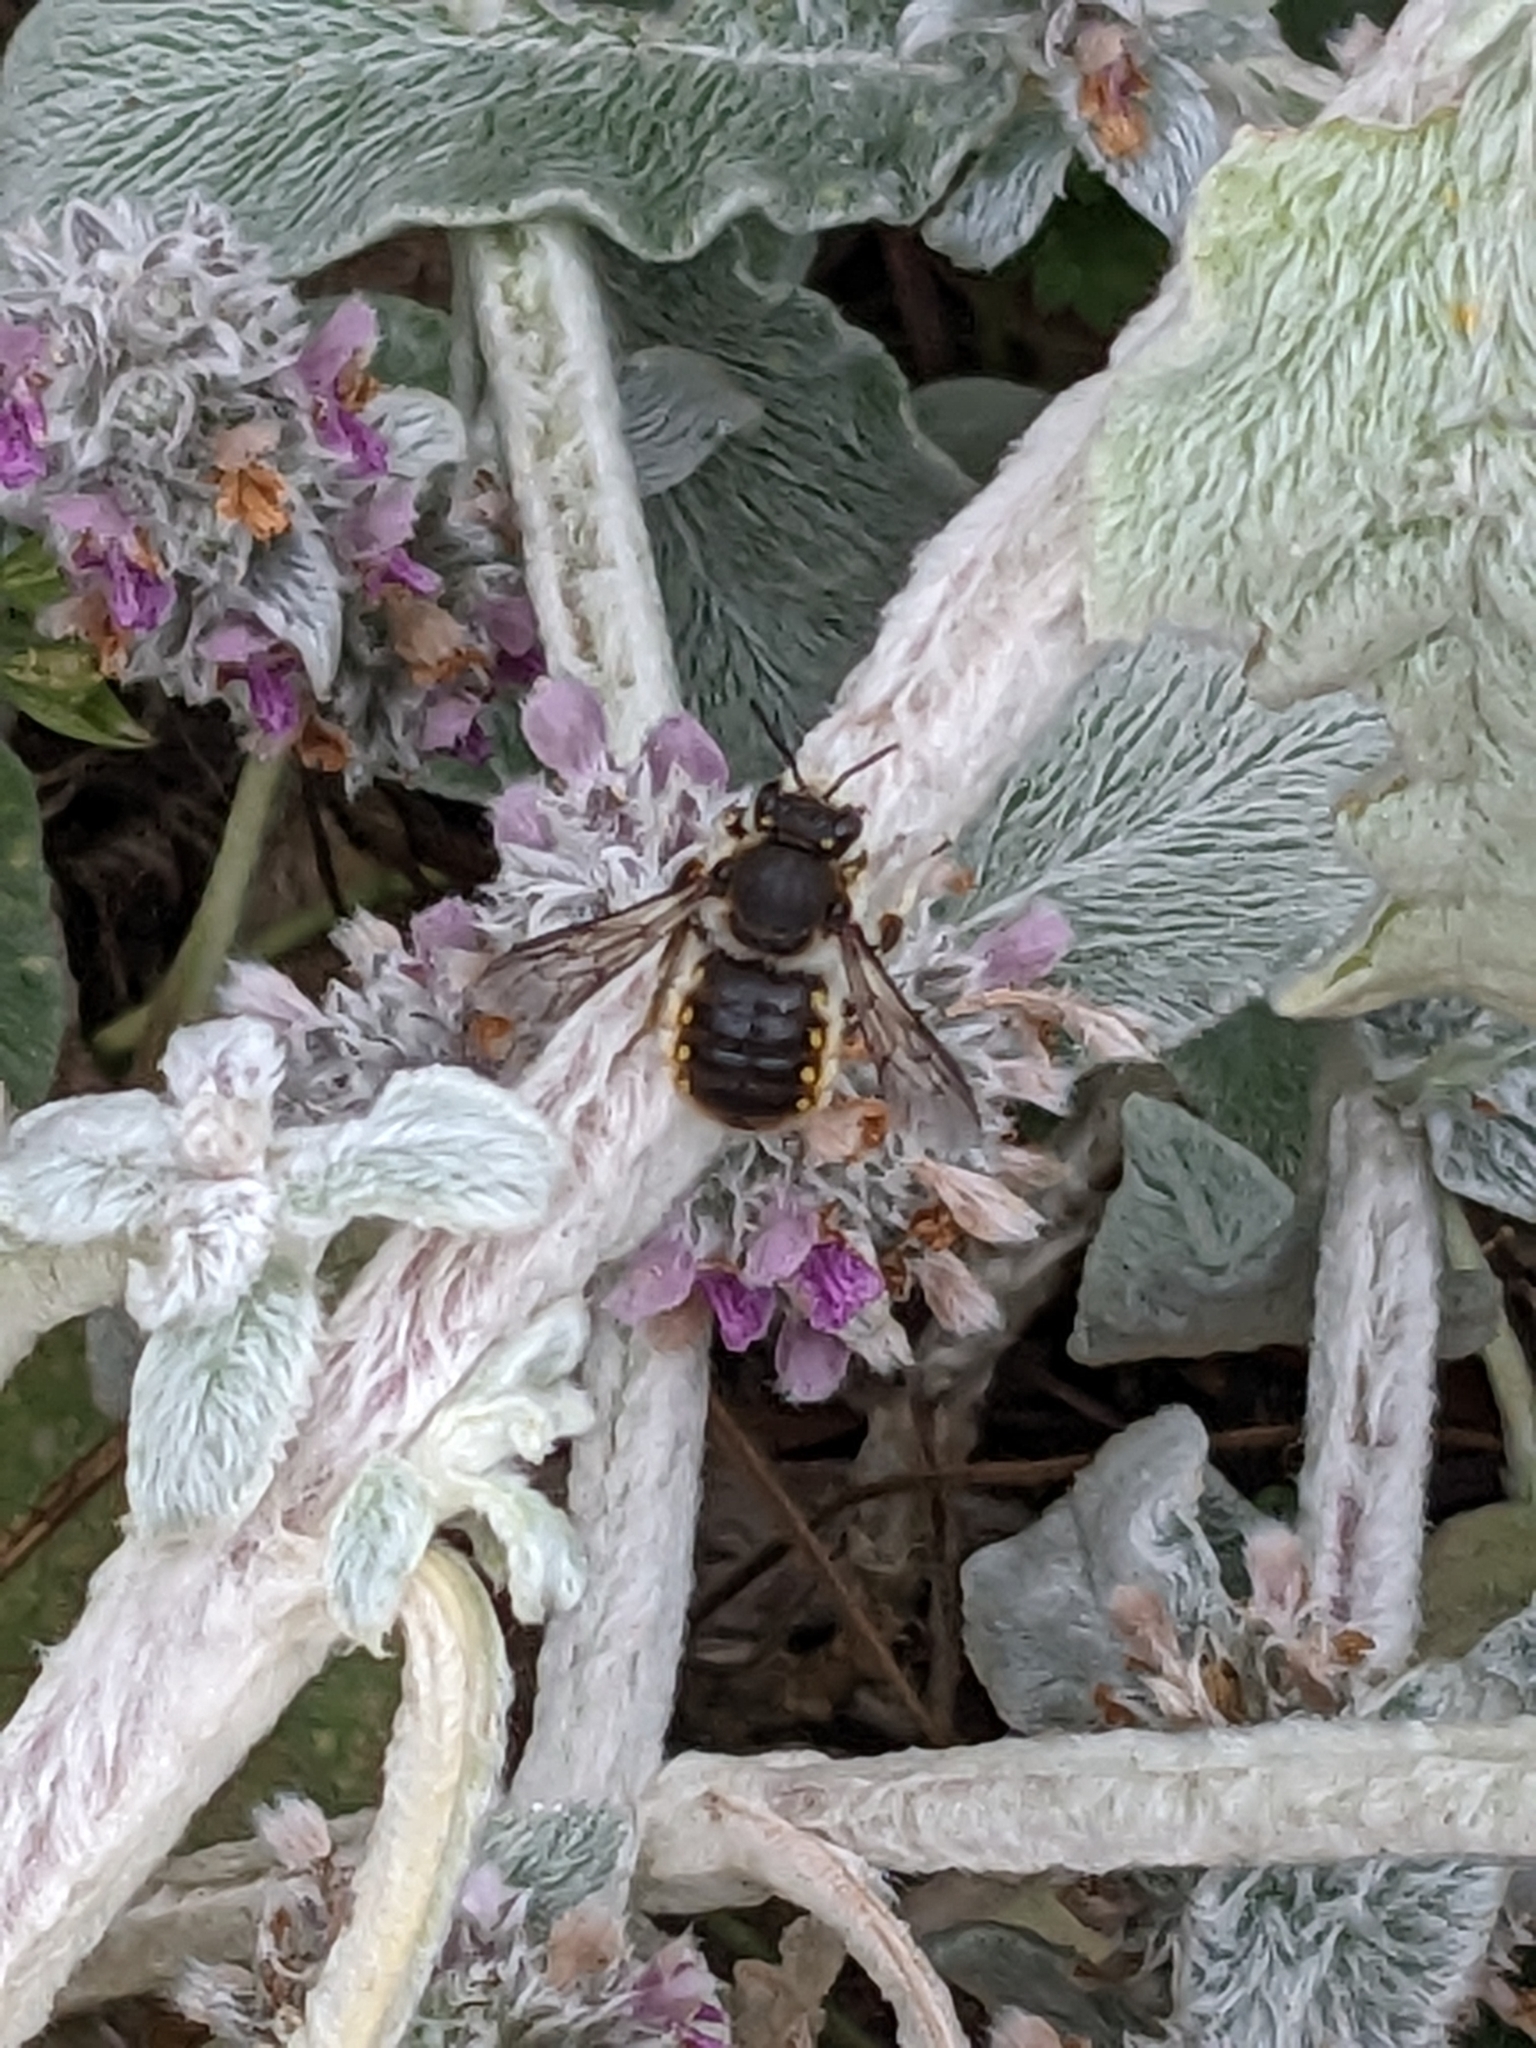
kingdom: Animalia
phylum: Arthropoda
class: Insecta
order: Hymenoptera
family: Megachilidae
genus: Anthidium
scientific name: Anthidium manicatum
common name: Wool carder bee
